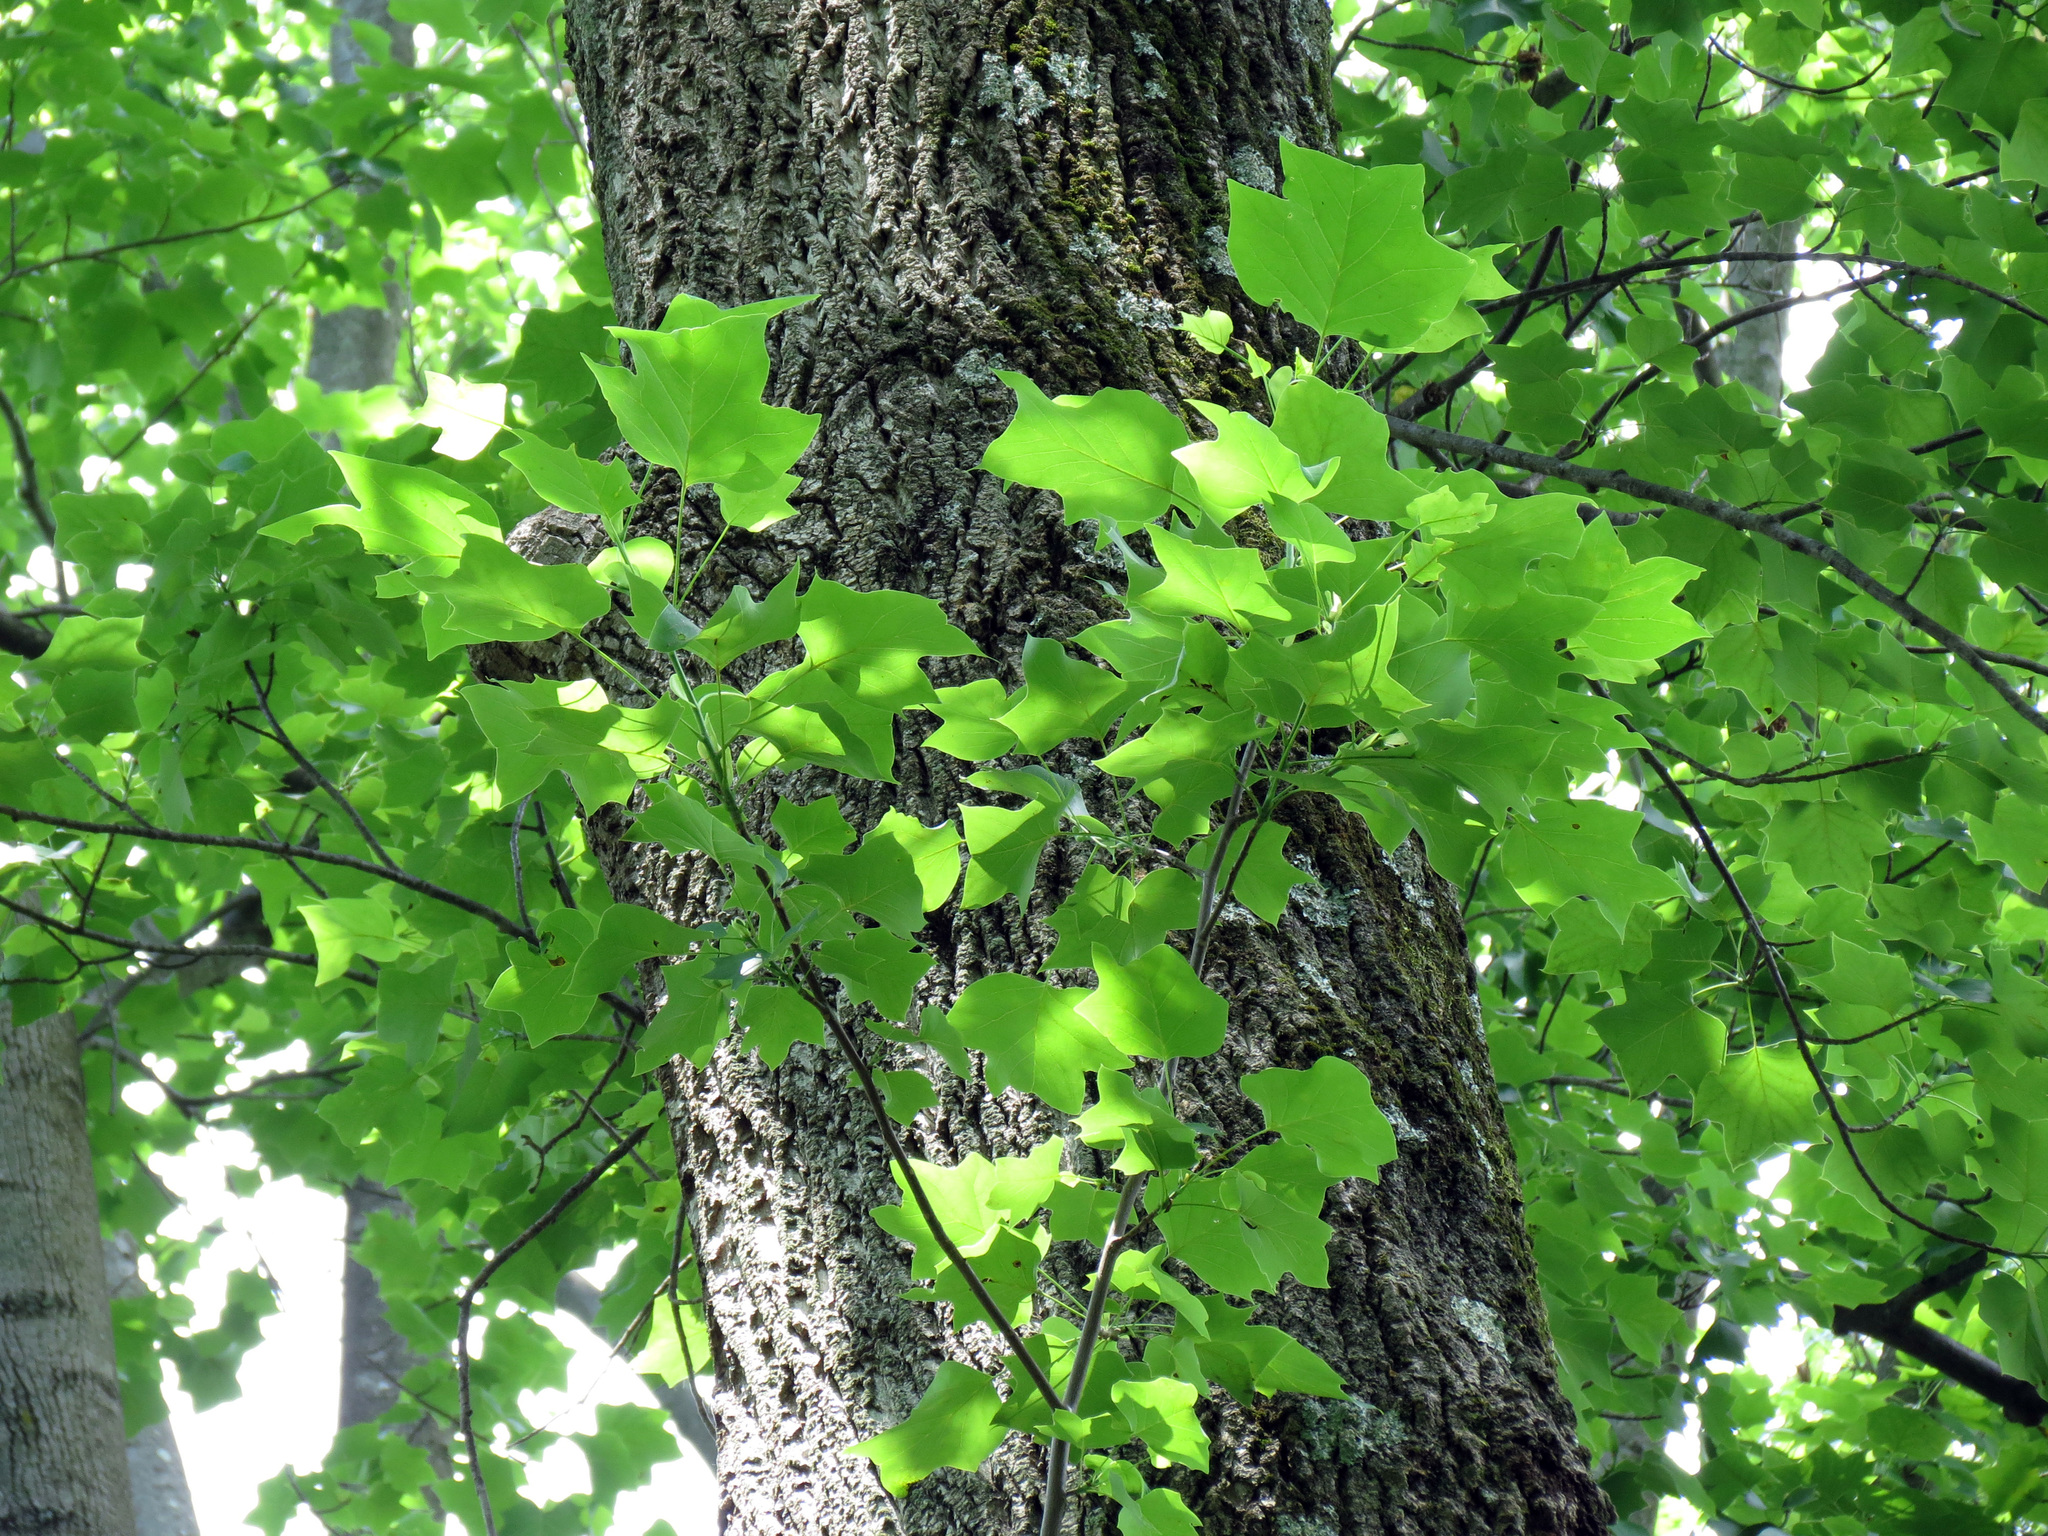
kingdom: Plantae
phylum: Tracheophyta
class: Magnoliopsida
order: Magnoliales
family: Magnoliaceae
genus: Liriodendron
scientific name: Liriodendron tulipifera
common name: Tulip tree
